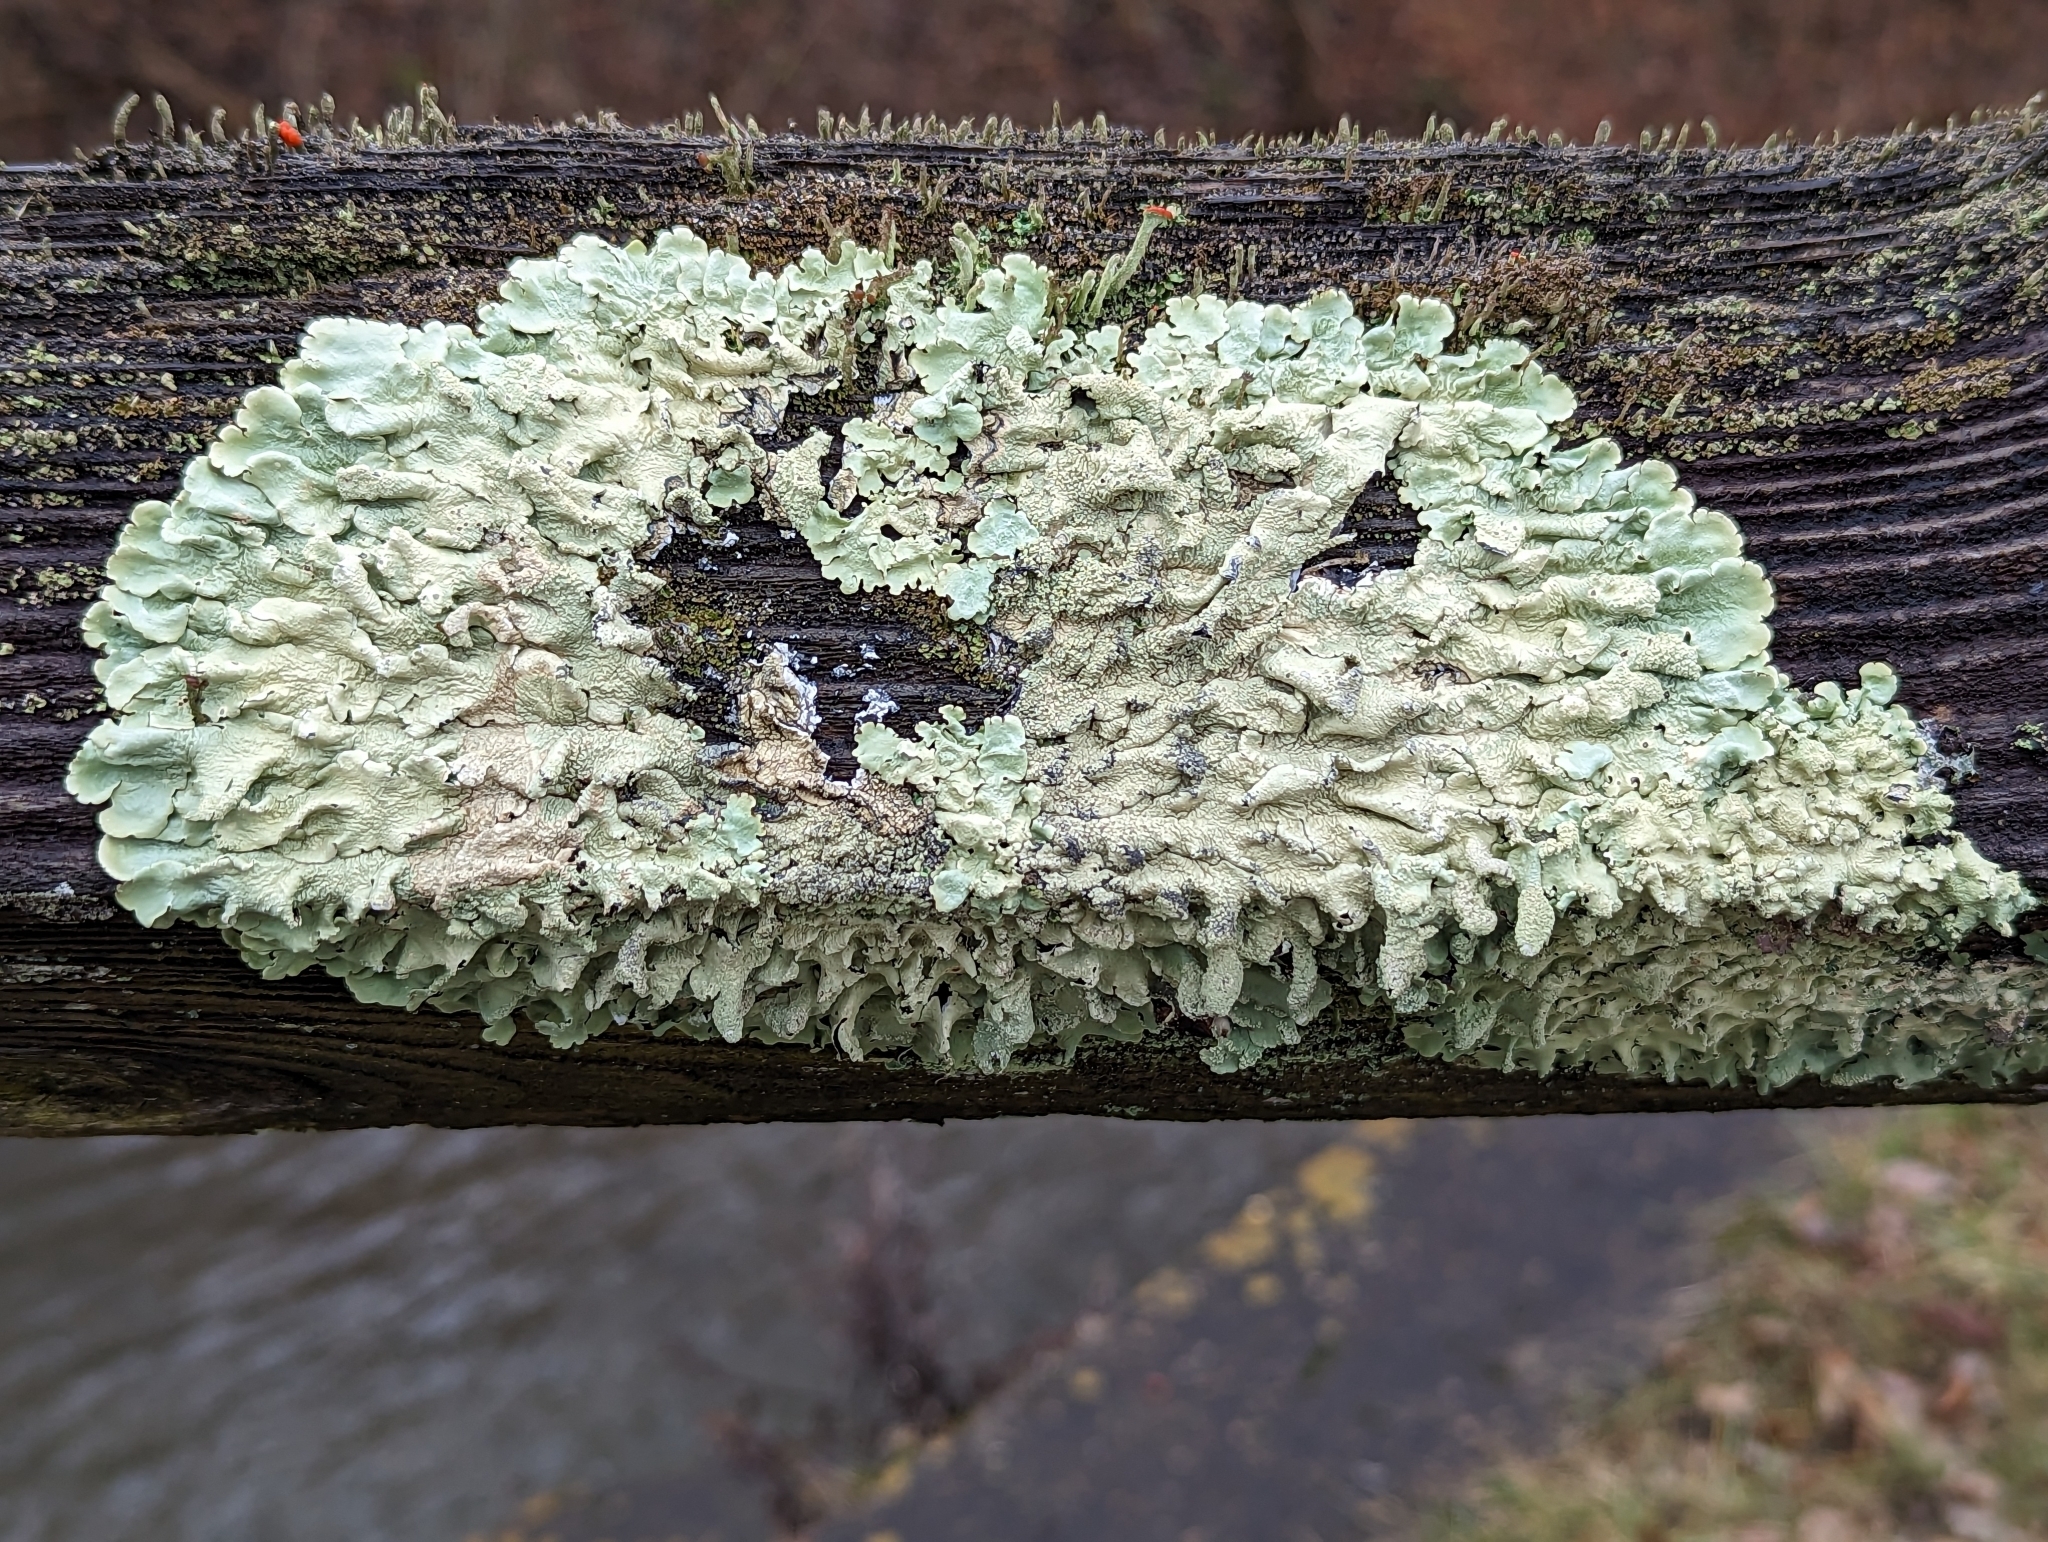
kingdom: Fungi
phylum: Ascomycota
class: Lecanoromycetes
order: Lecanorales
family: Parmeliaceae
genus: Flavoparmelia
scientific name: Flavoparmelia caperata
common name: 40-mile per hour lichen
